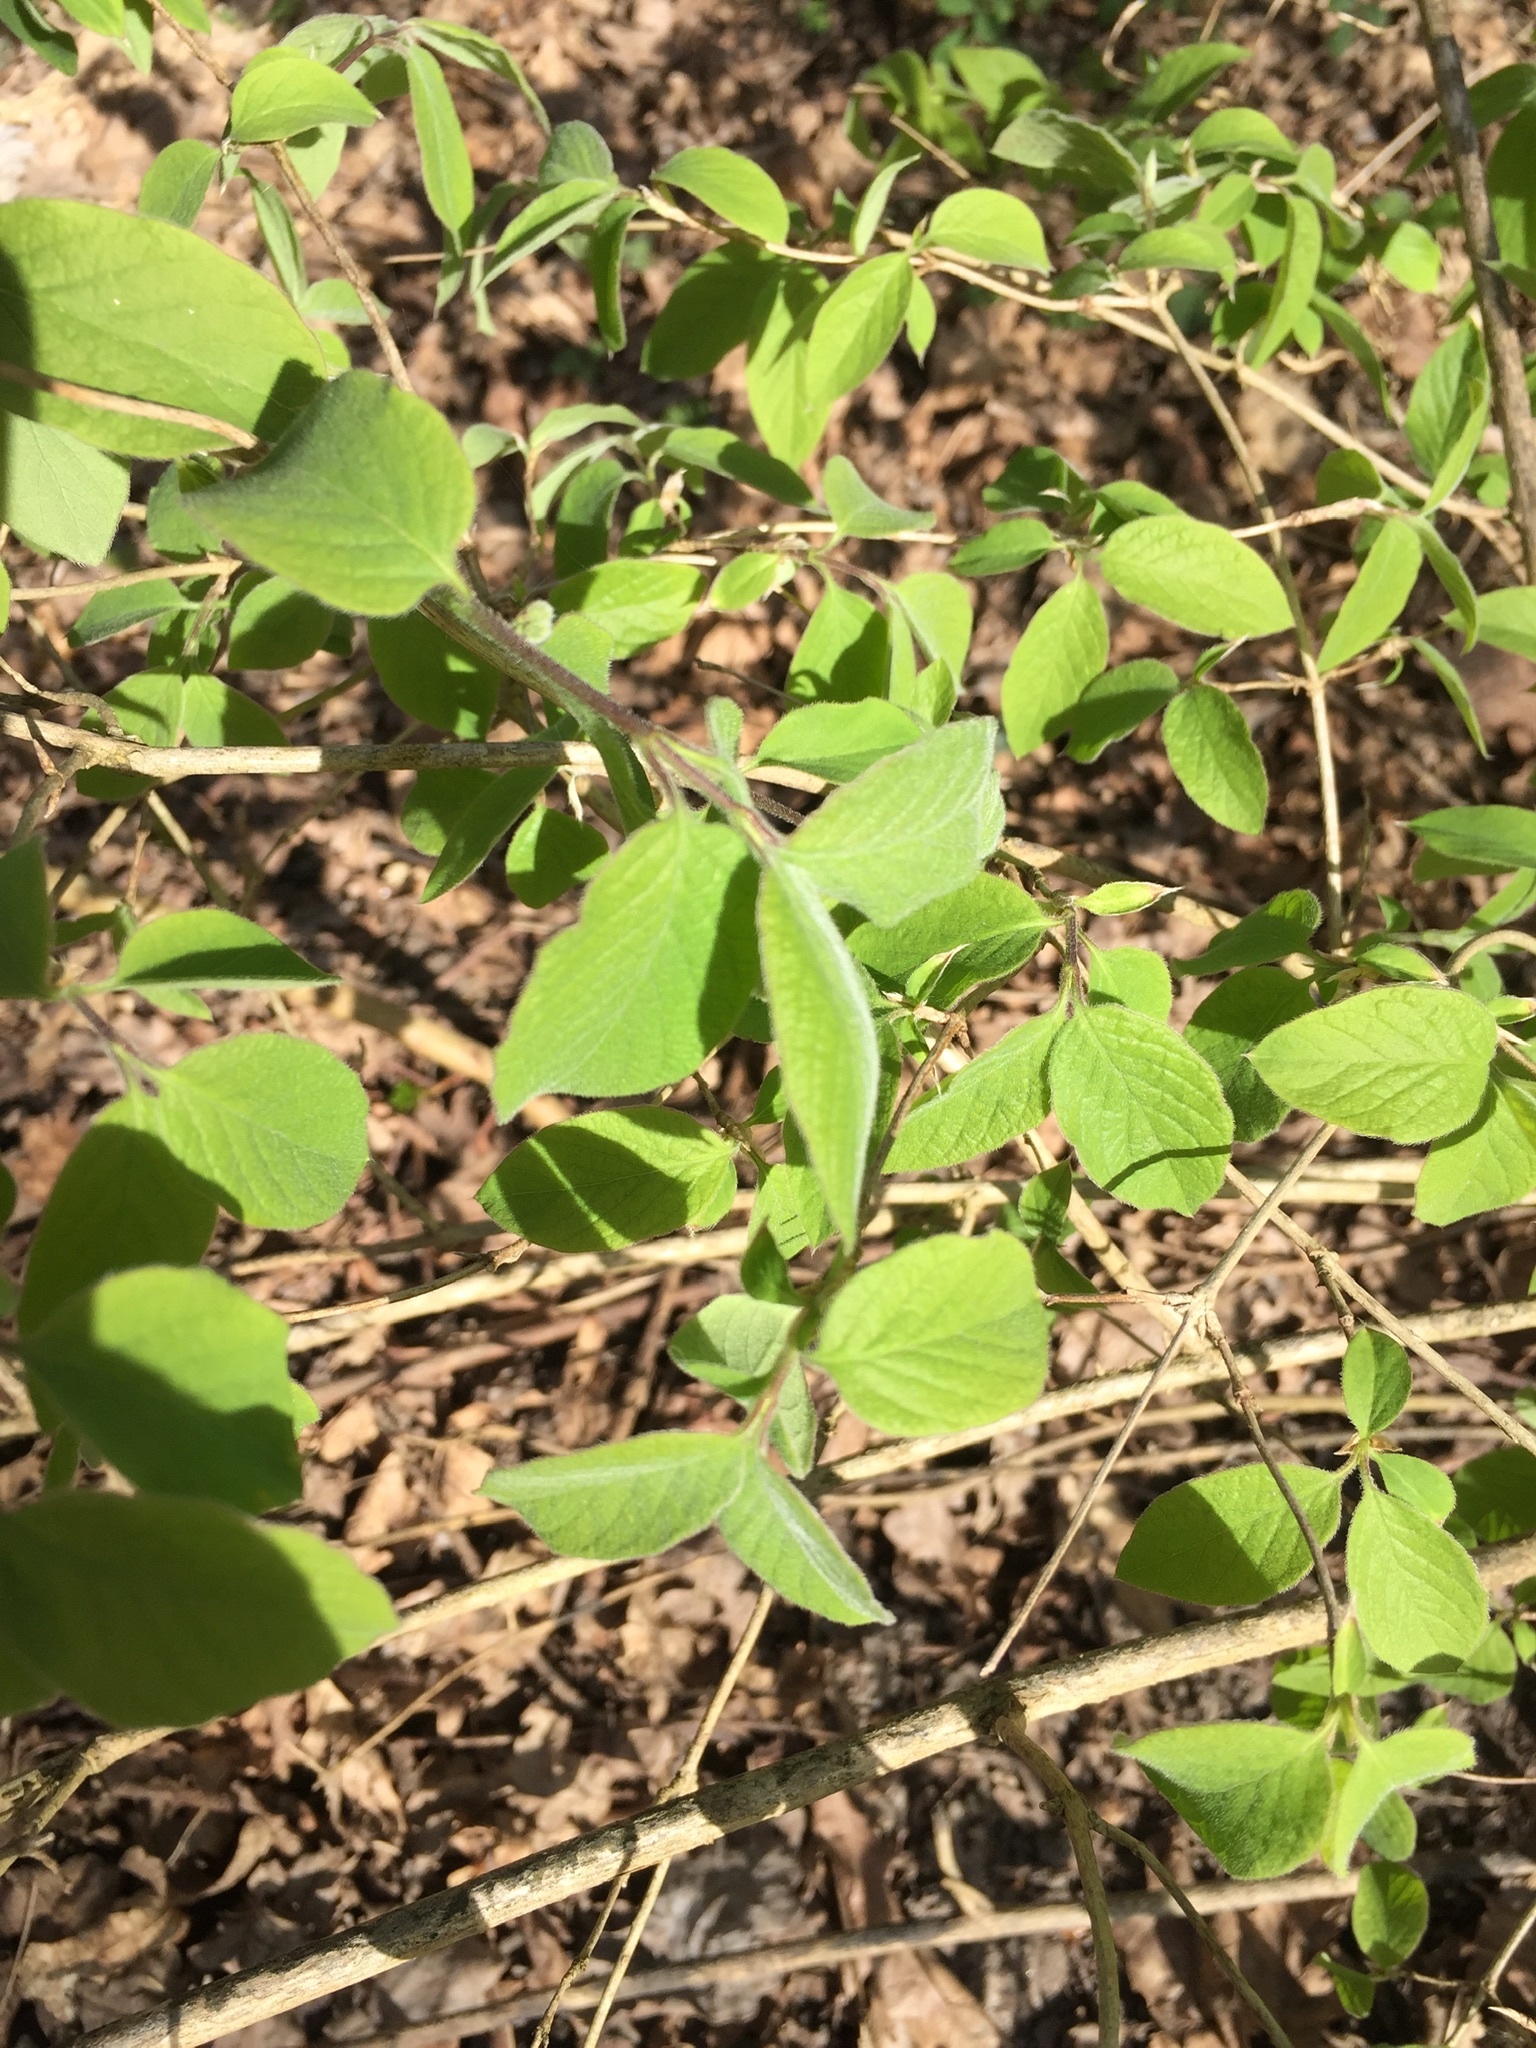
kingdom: Plantae
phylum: Tracheophyta
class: Magnoliopsida
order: Dipsacales
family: Caprifoliaceae
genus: Lonicera
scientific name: Lonicera xylosteum
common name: Fly honeysuckle
